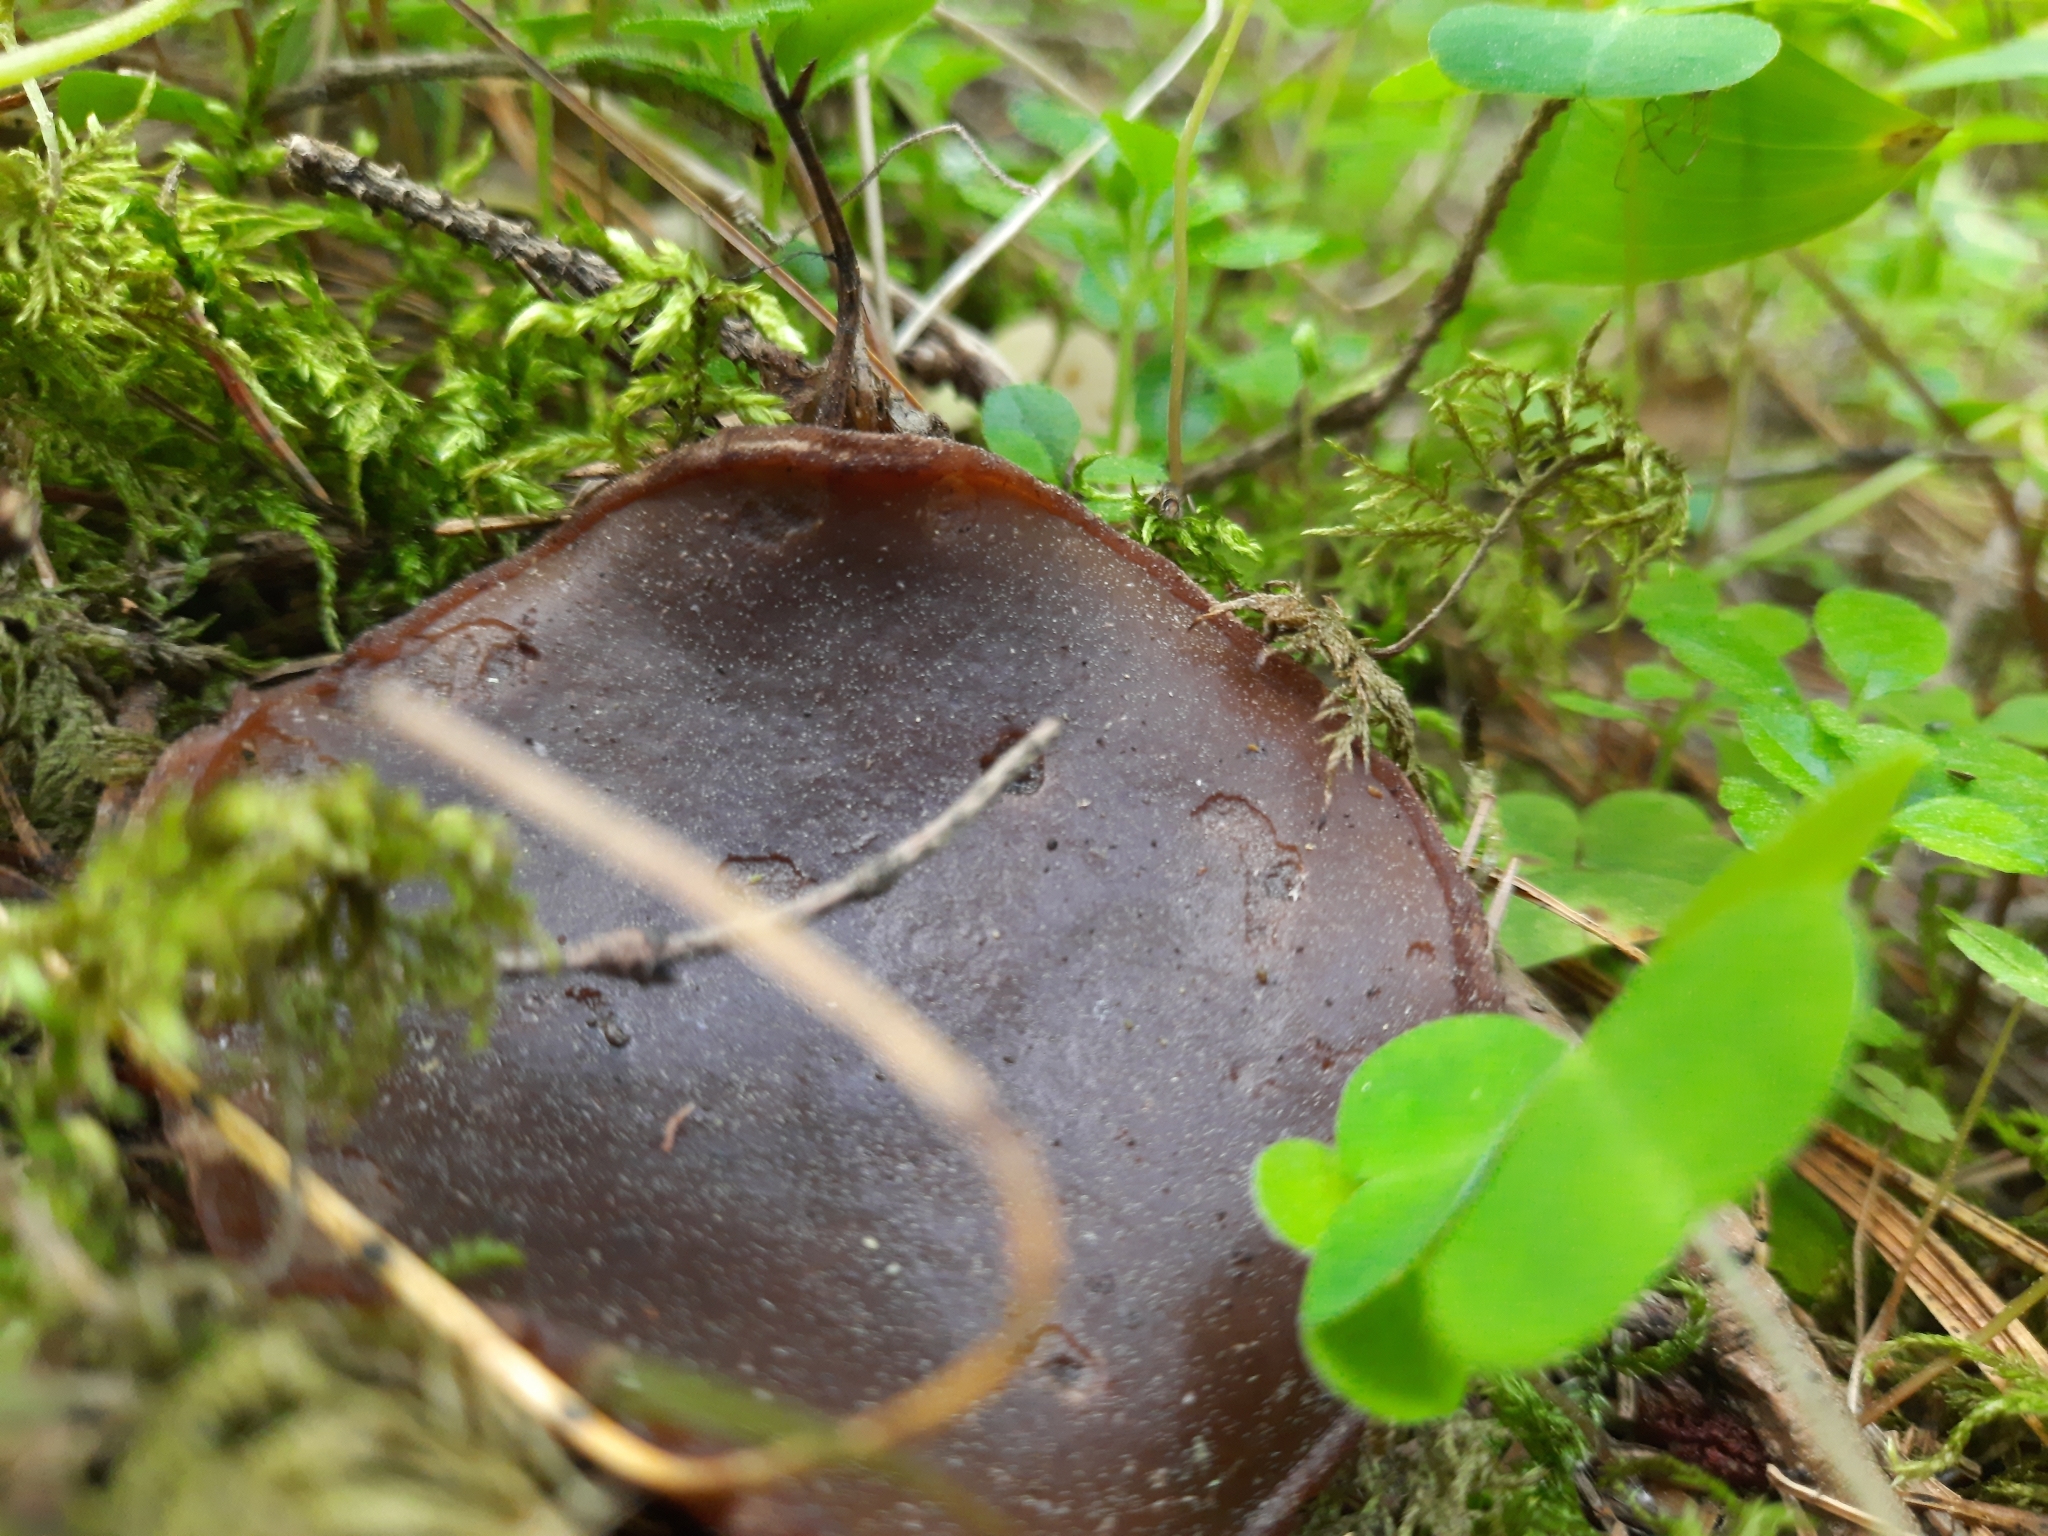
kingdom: Fungi
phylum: Ascomycota
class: Pezizomycetes
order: Pezizales
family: Sarcosomataceae
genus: Sarcosoma
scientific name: Sarcosoma globosum
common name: Charred-pancake cup
